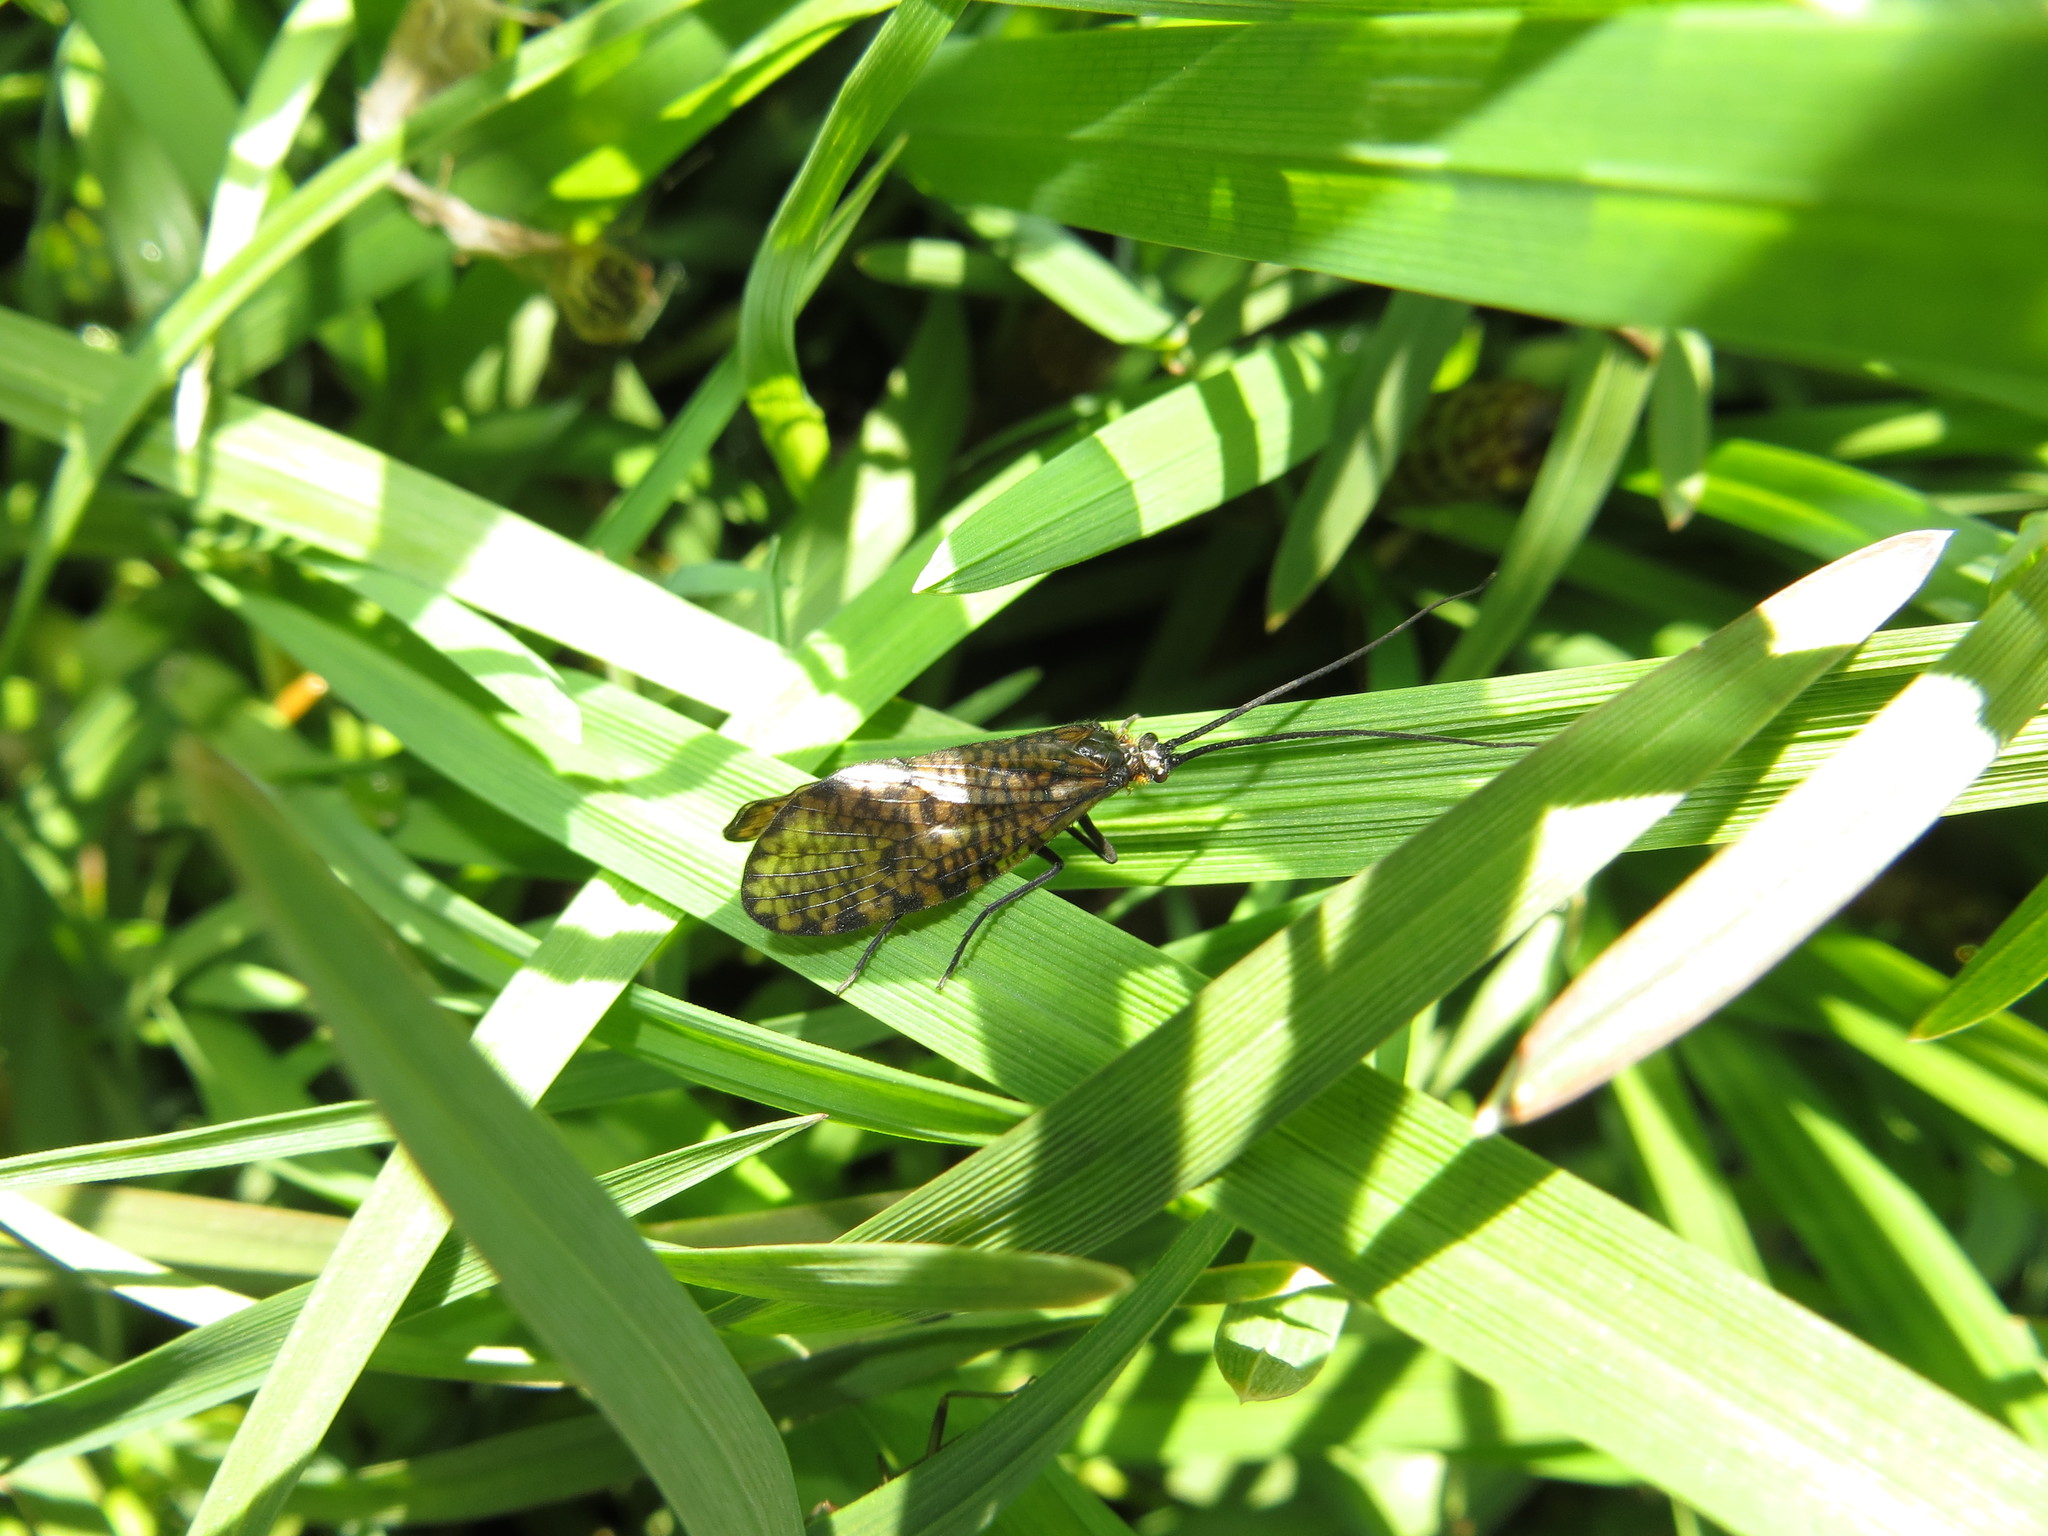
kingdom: Animalia
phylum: Arthropoda
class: Insecta
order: Trichoptera
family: Phryganeidae
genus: Oligostomis
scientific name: Oligostomis reticulata
